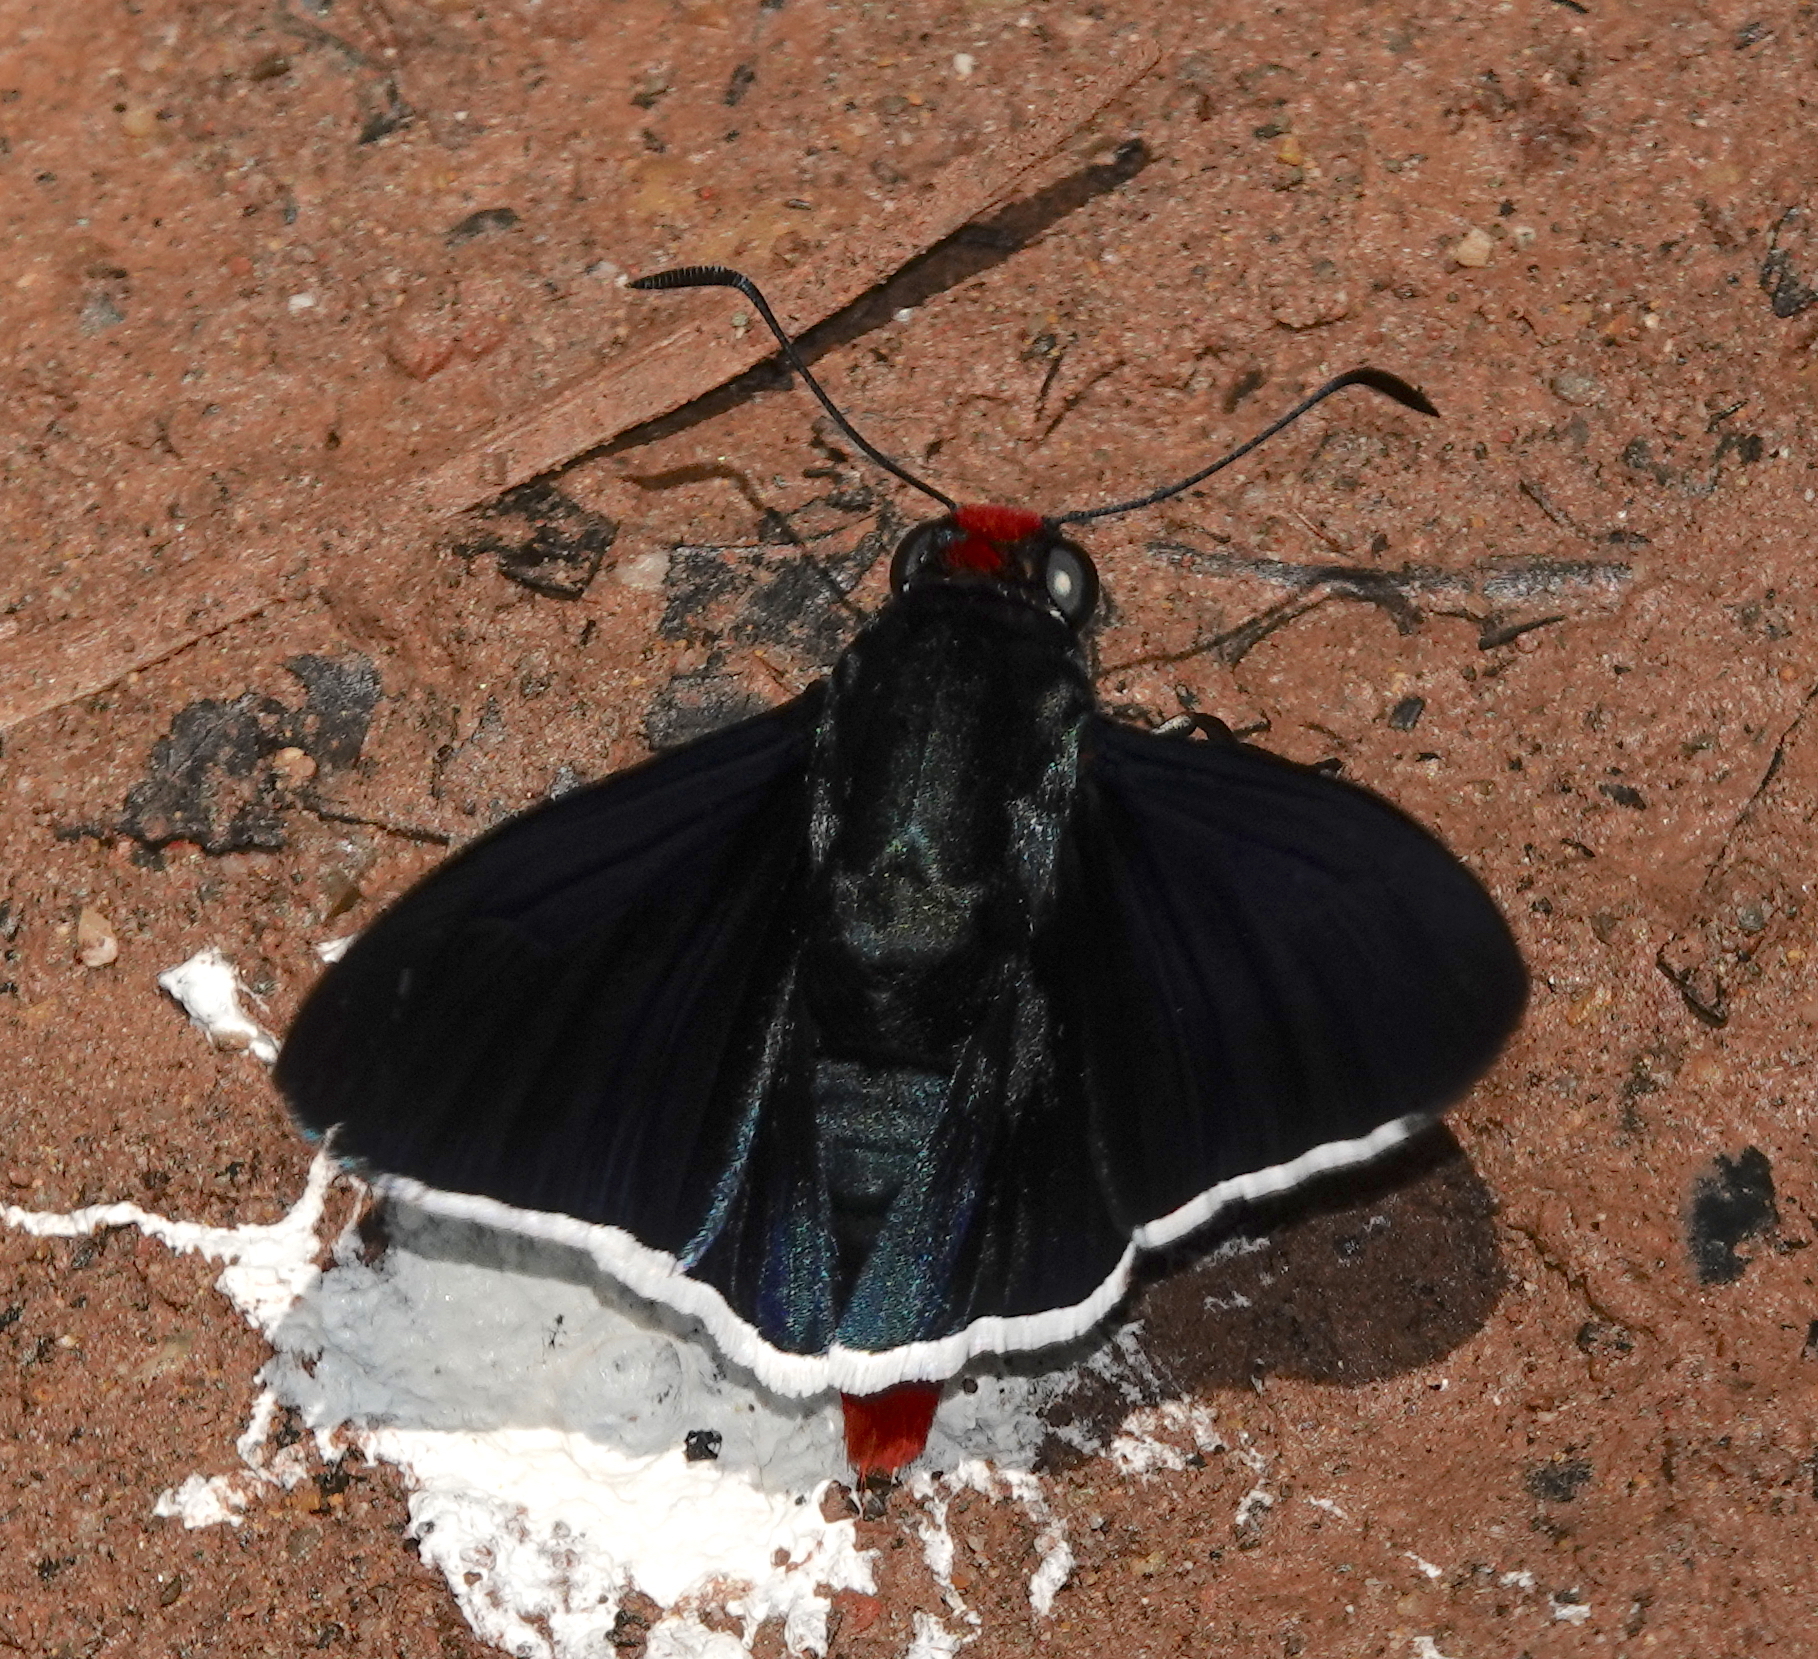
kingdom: Animalia
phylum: Arthropoda
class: Insecta
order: Lepidoptera
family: Hesperiidae
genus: Pyrrhopyge
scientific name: Pyrrhopyge phidias
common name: Original firetip
